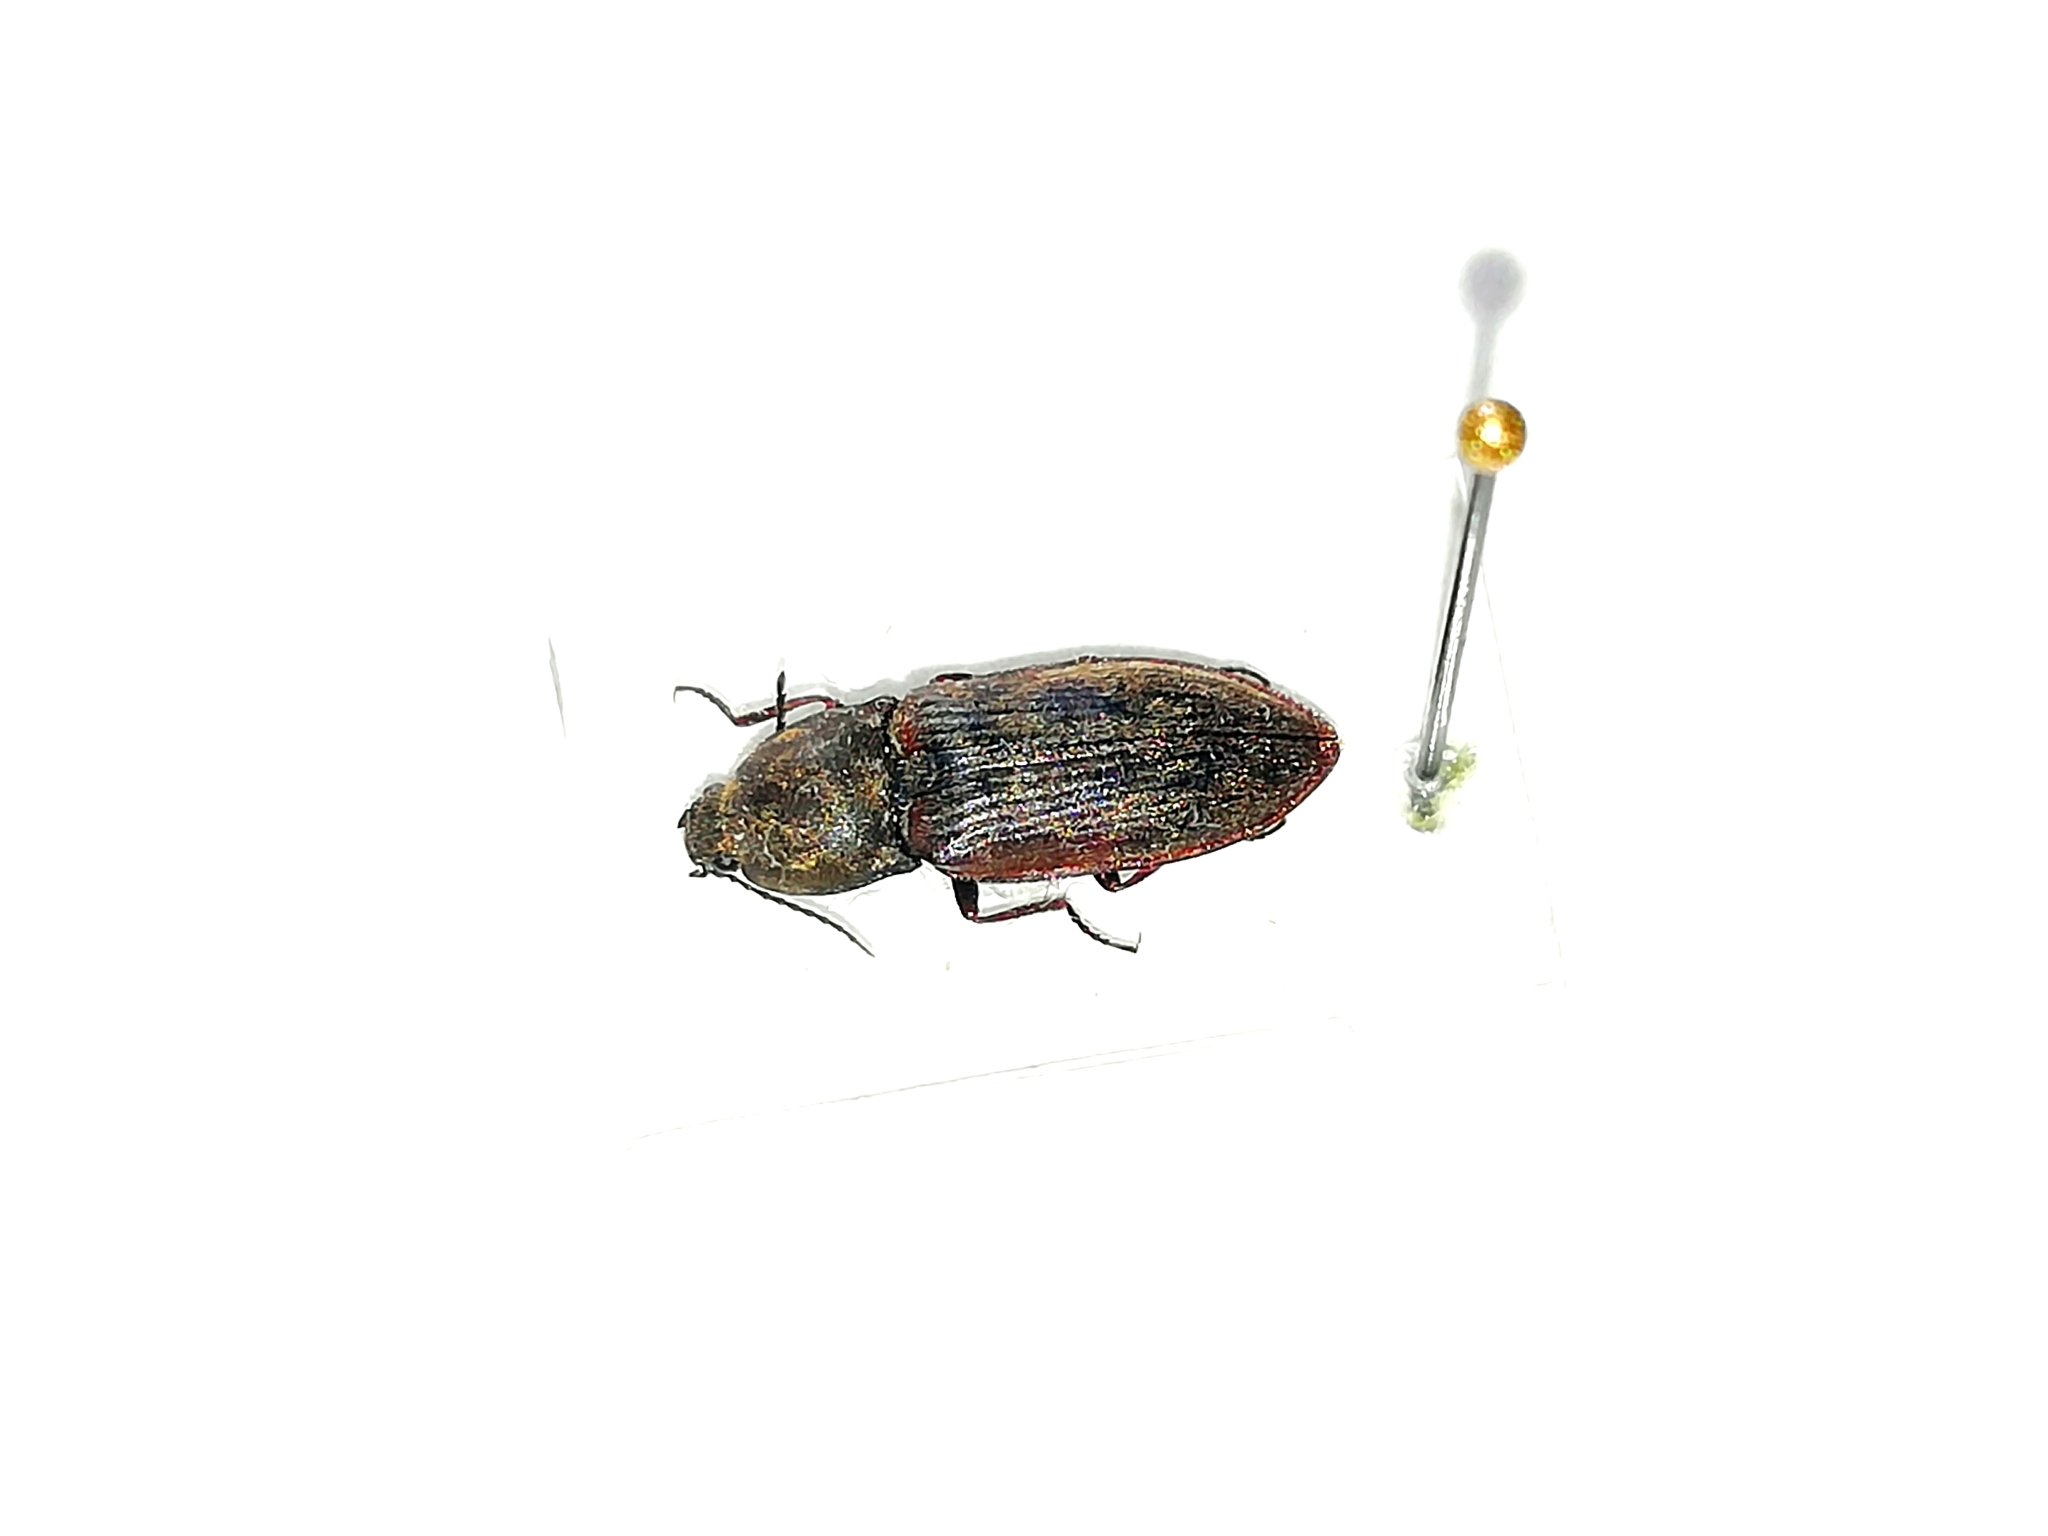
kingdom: Animalia
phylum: Arthropoda
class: Insecta
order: Coleoptera
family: Elateridae
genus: Prosternon
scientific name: Prosternon tessellatum
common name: Chequered click beetle
